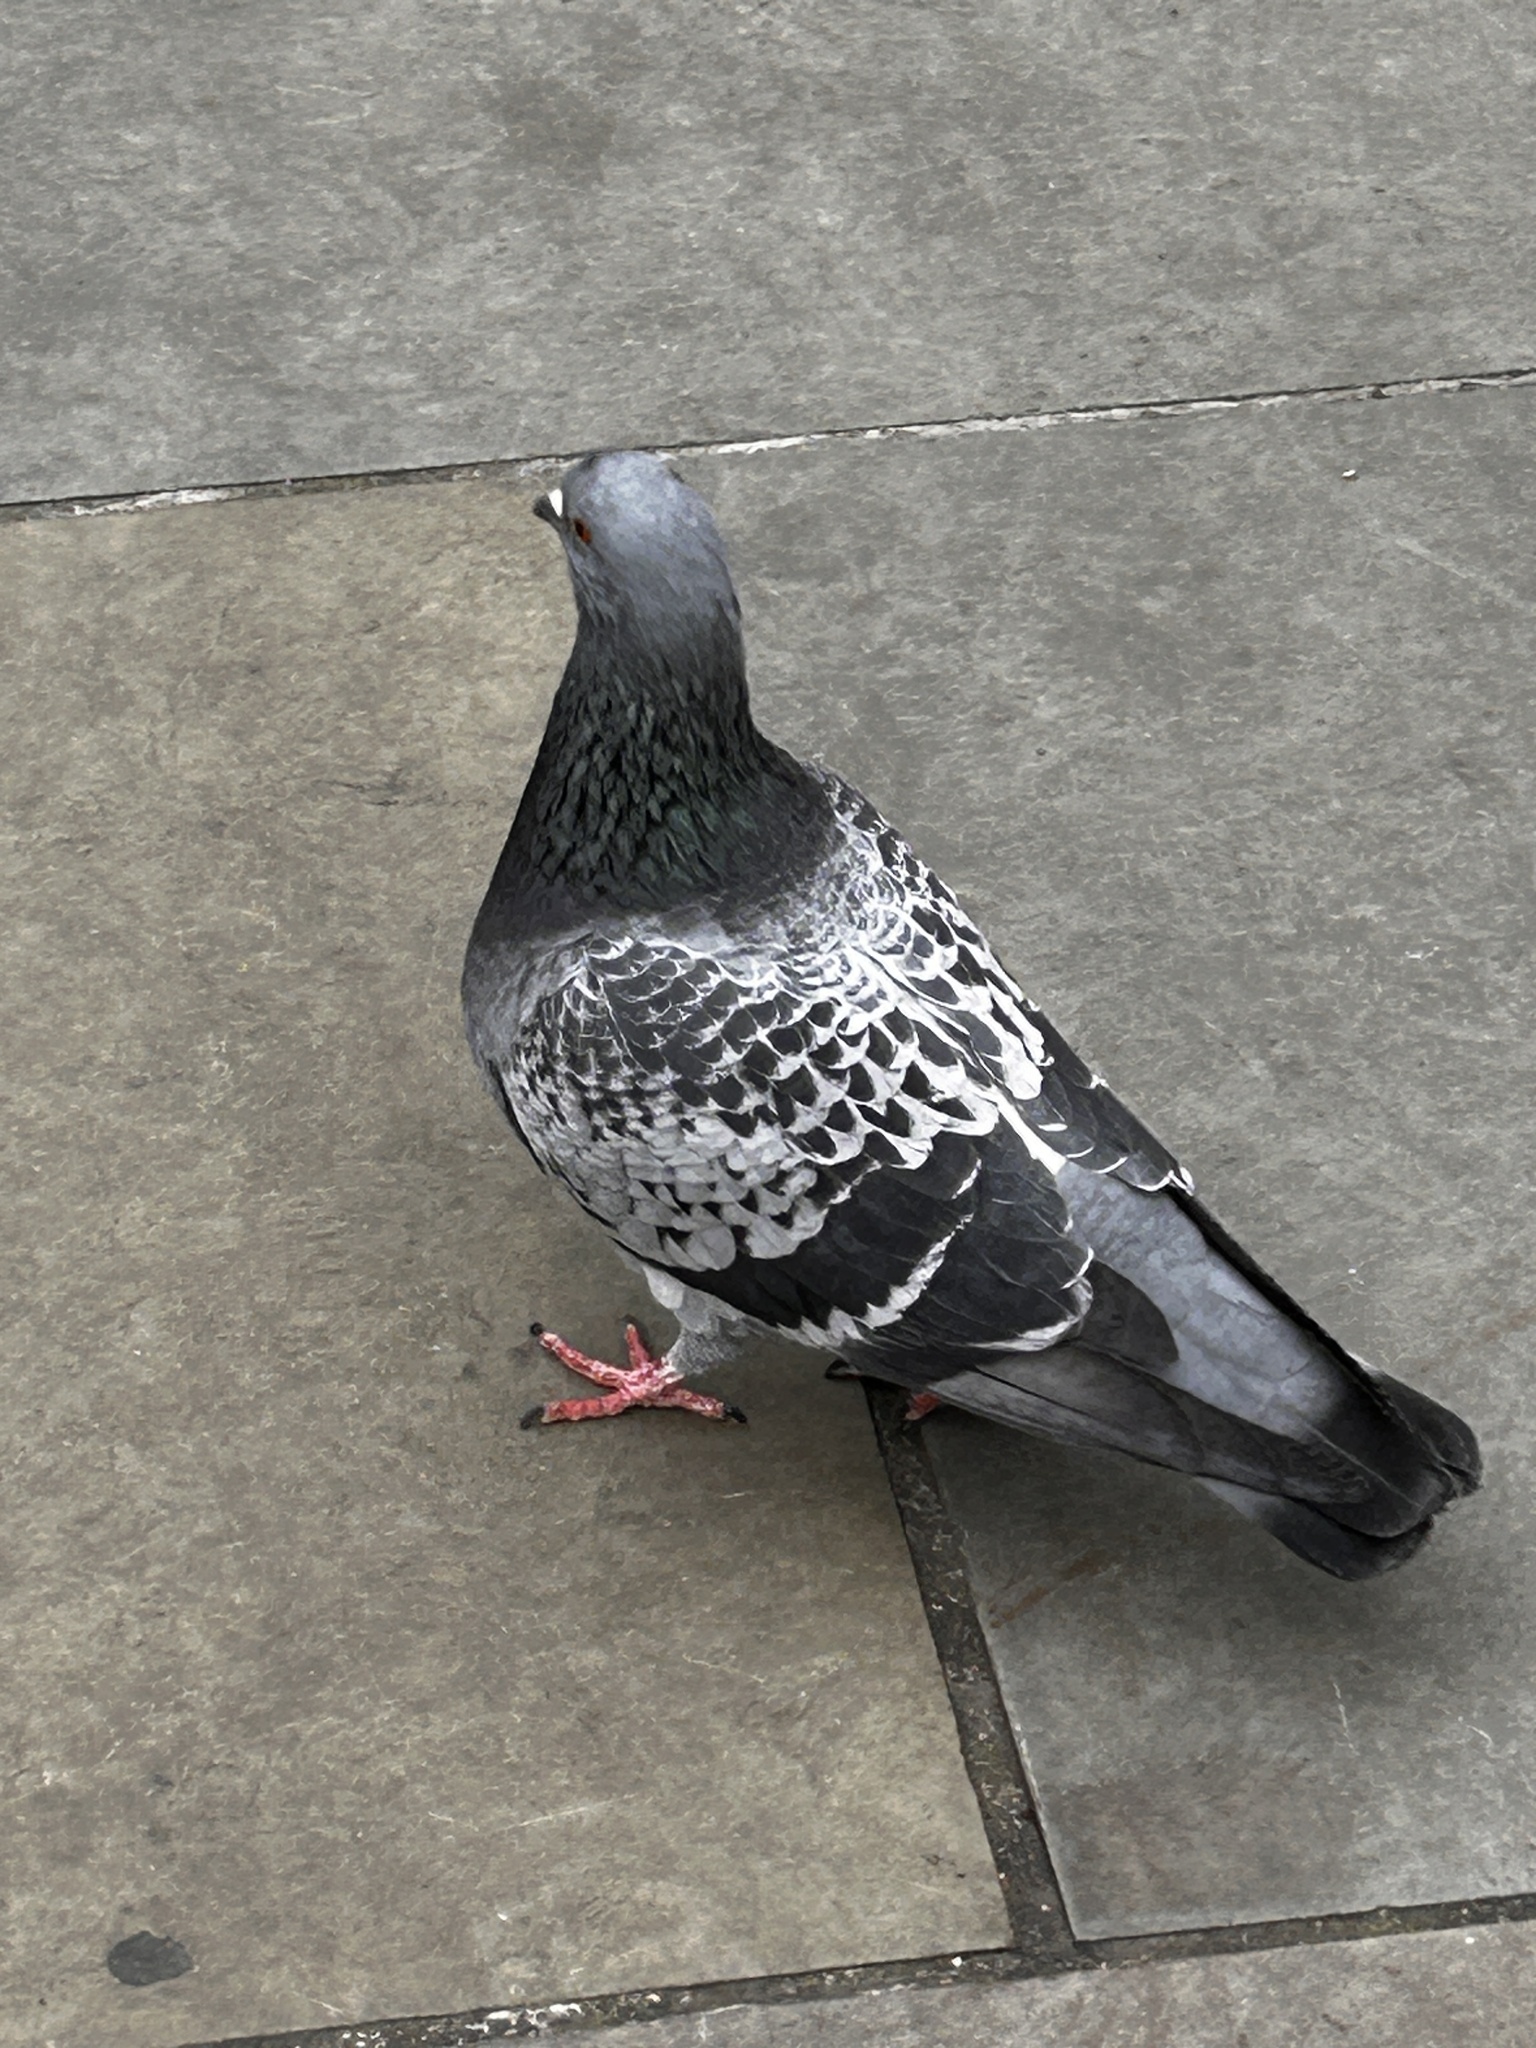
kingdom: Animalia
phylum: Chordata
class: Aves
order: Columbiformes
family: Columbidae
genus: Columba
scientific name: Columba livia
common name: Rock pigeon
